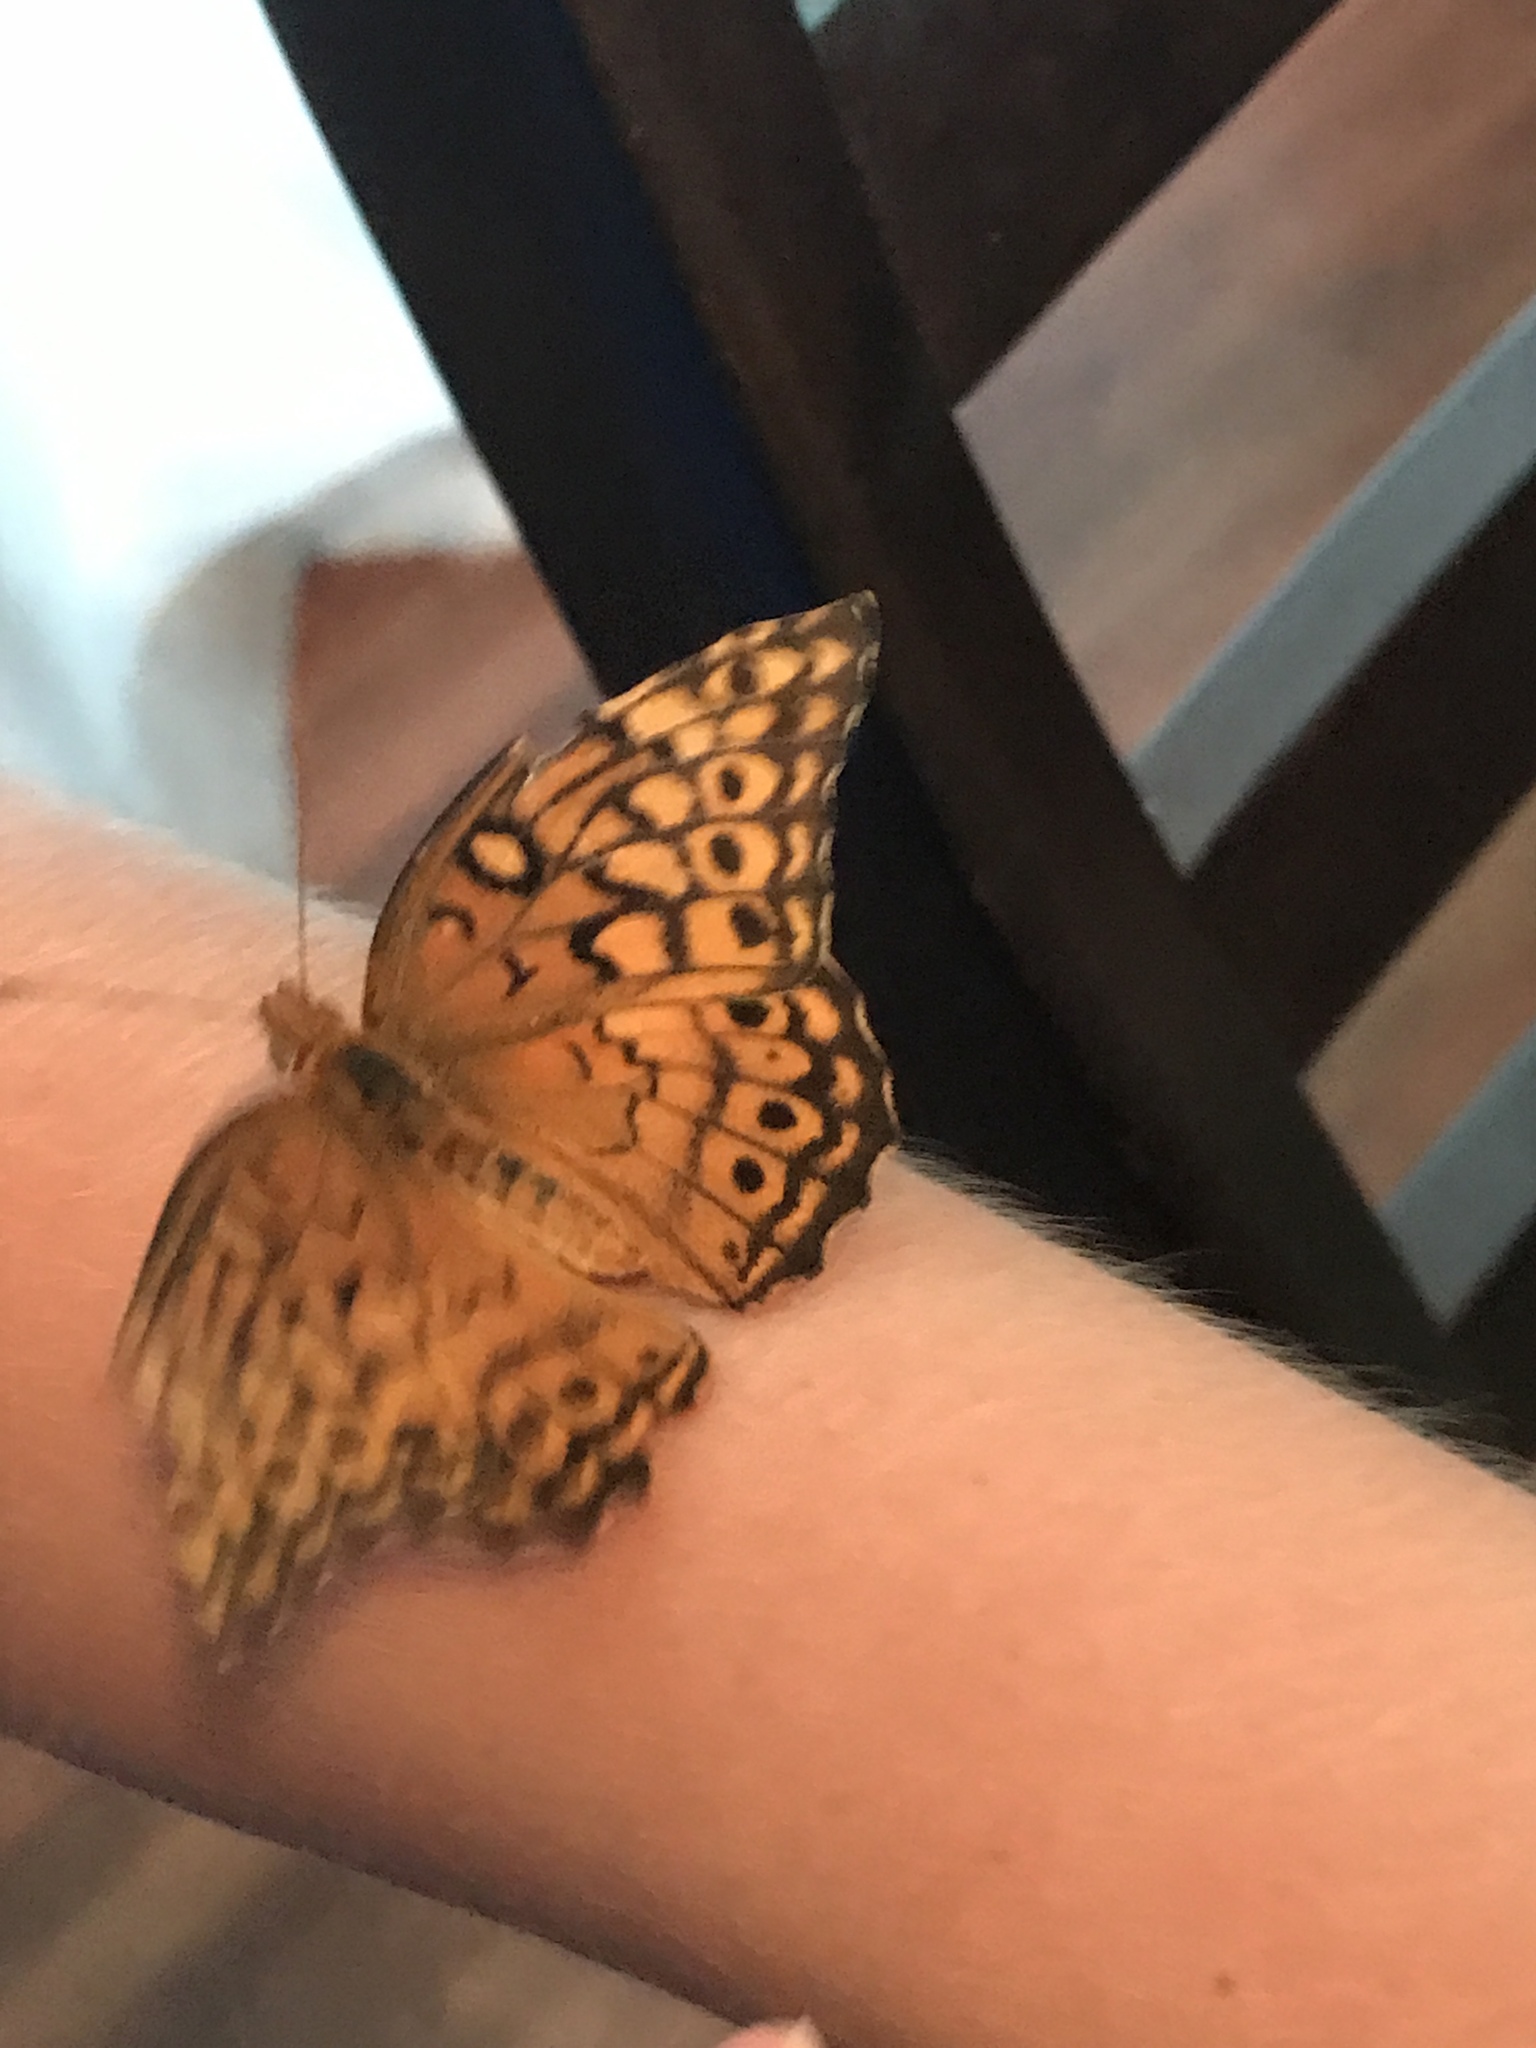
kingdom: Animalia
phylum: Arthropoda
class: Insecta
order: Lepidoptera
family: Nymphalidae
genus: Euptoieta
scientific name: Euptoieta claudia
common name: Variegated fritillary
